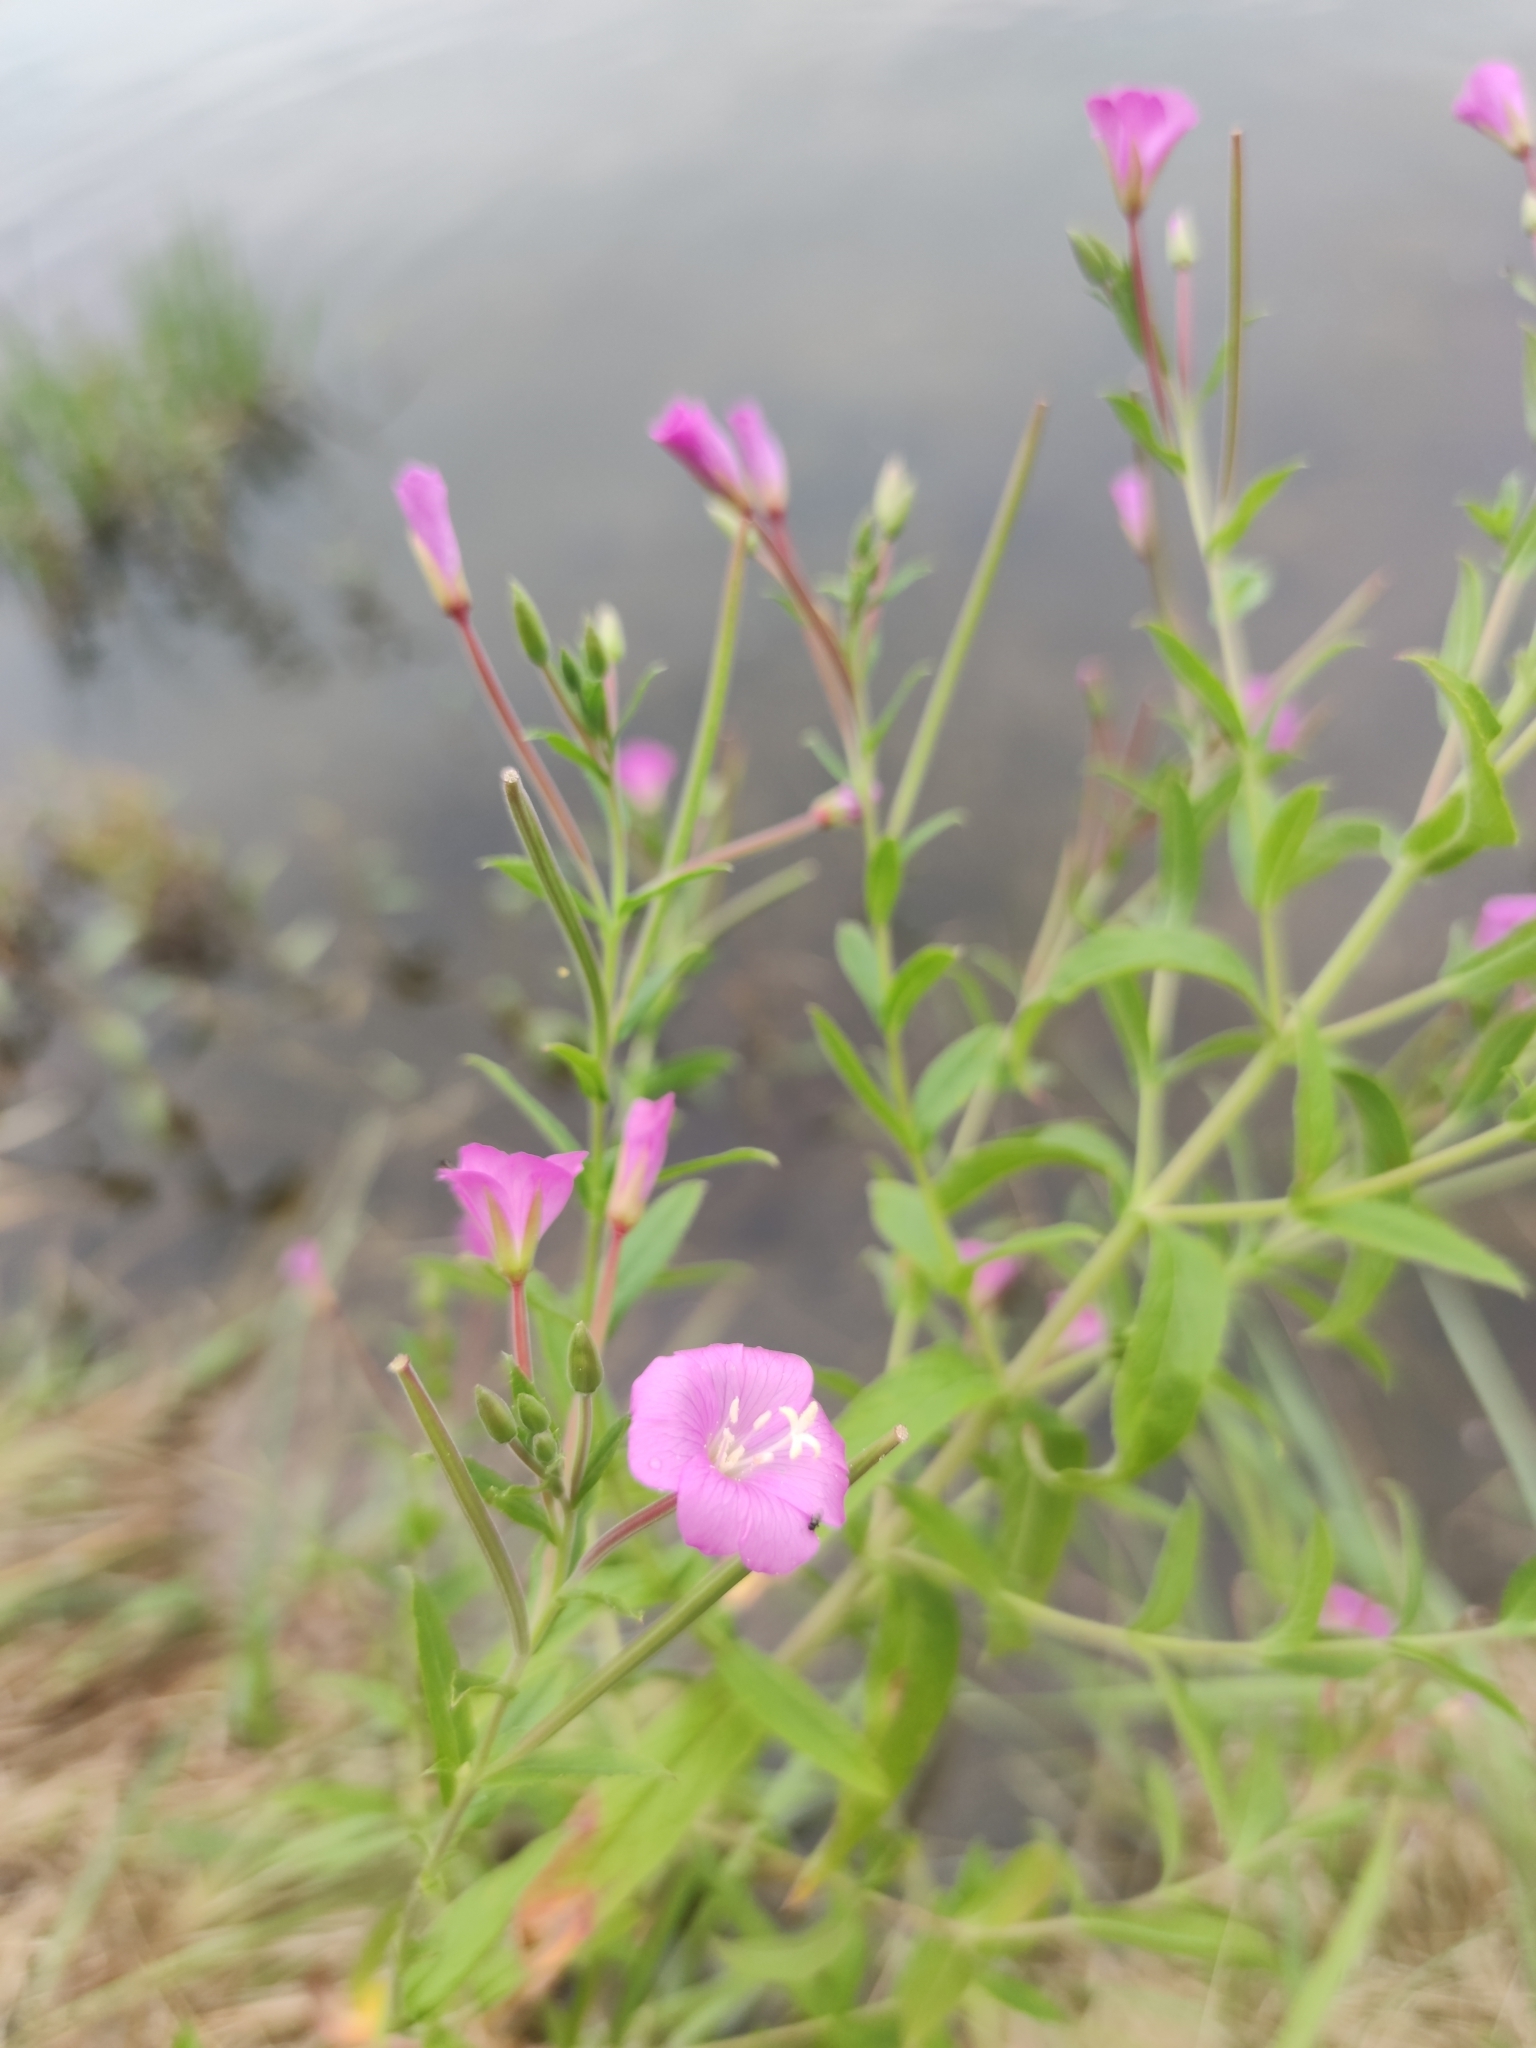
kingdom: Plantae
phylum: Tracheophyta
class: Magnoliopsida
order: Myrtales
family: Onagraceae
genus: Epilobium
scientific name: Epilobium hirsutum
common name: Great willowherb
